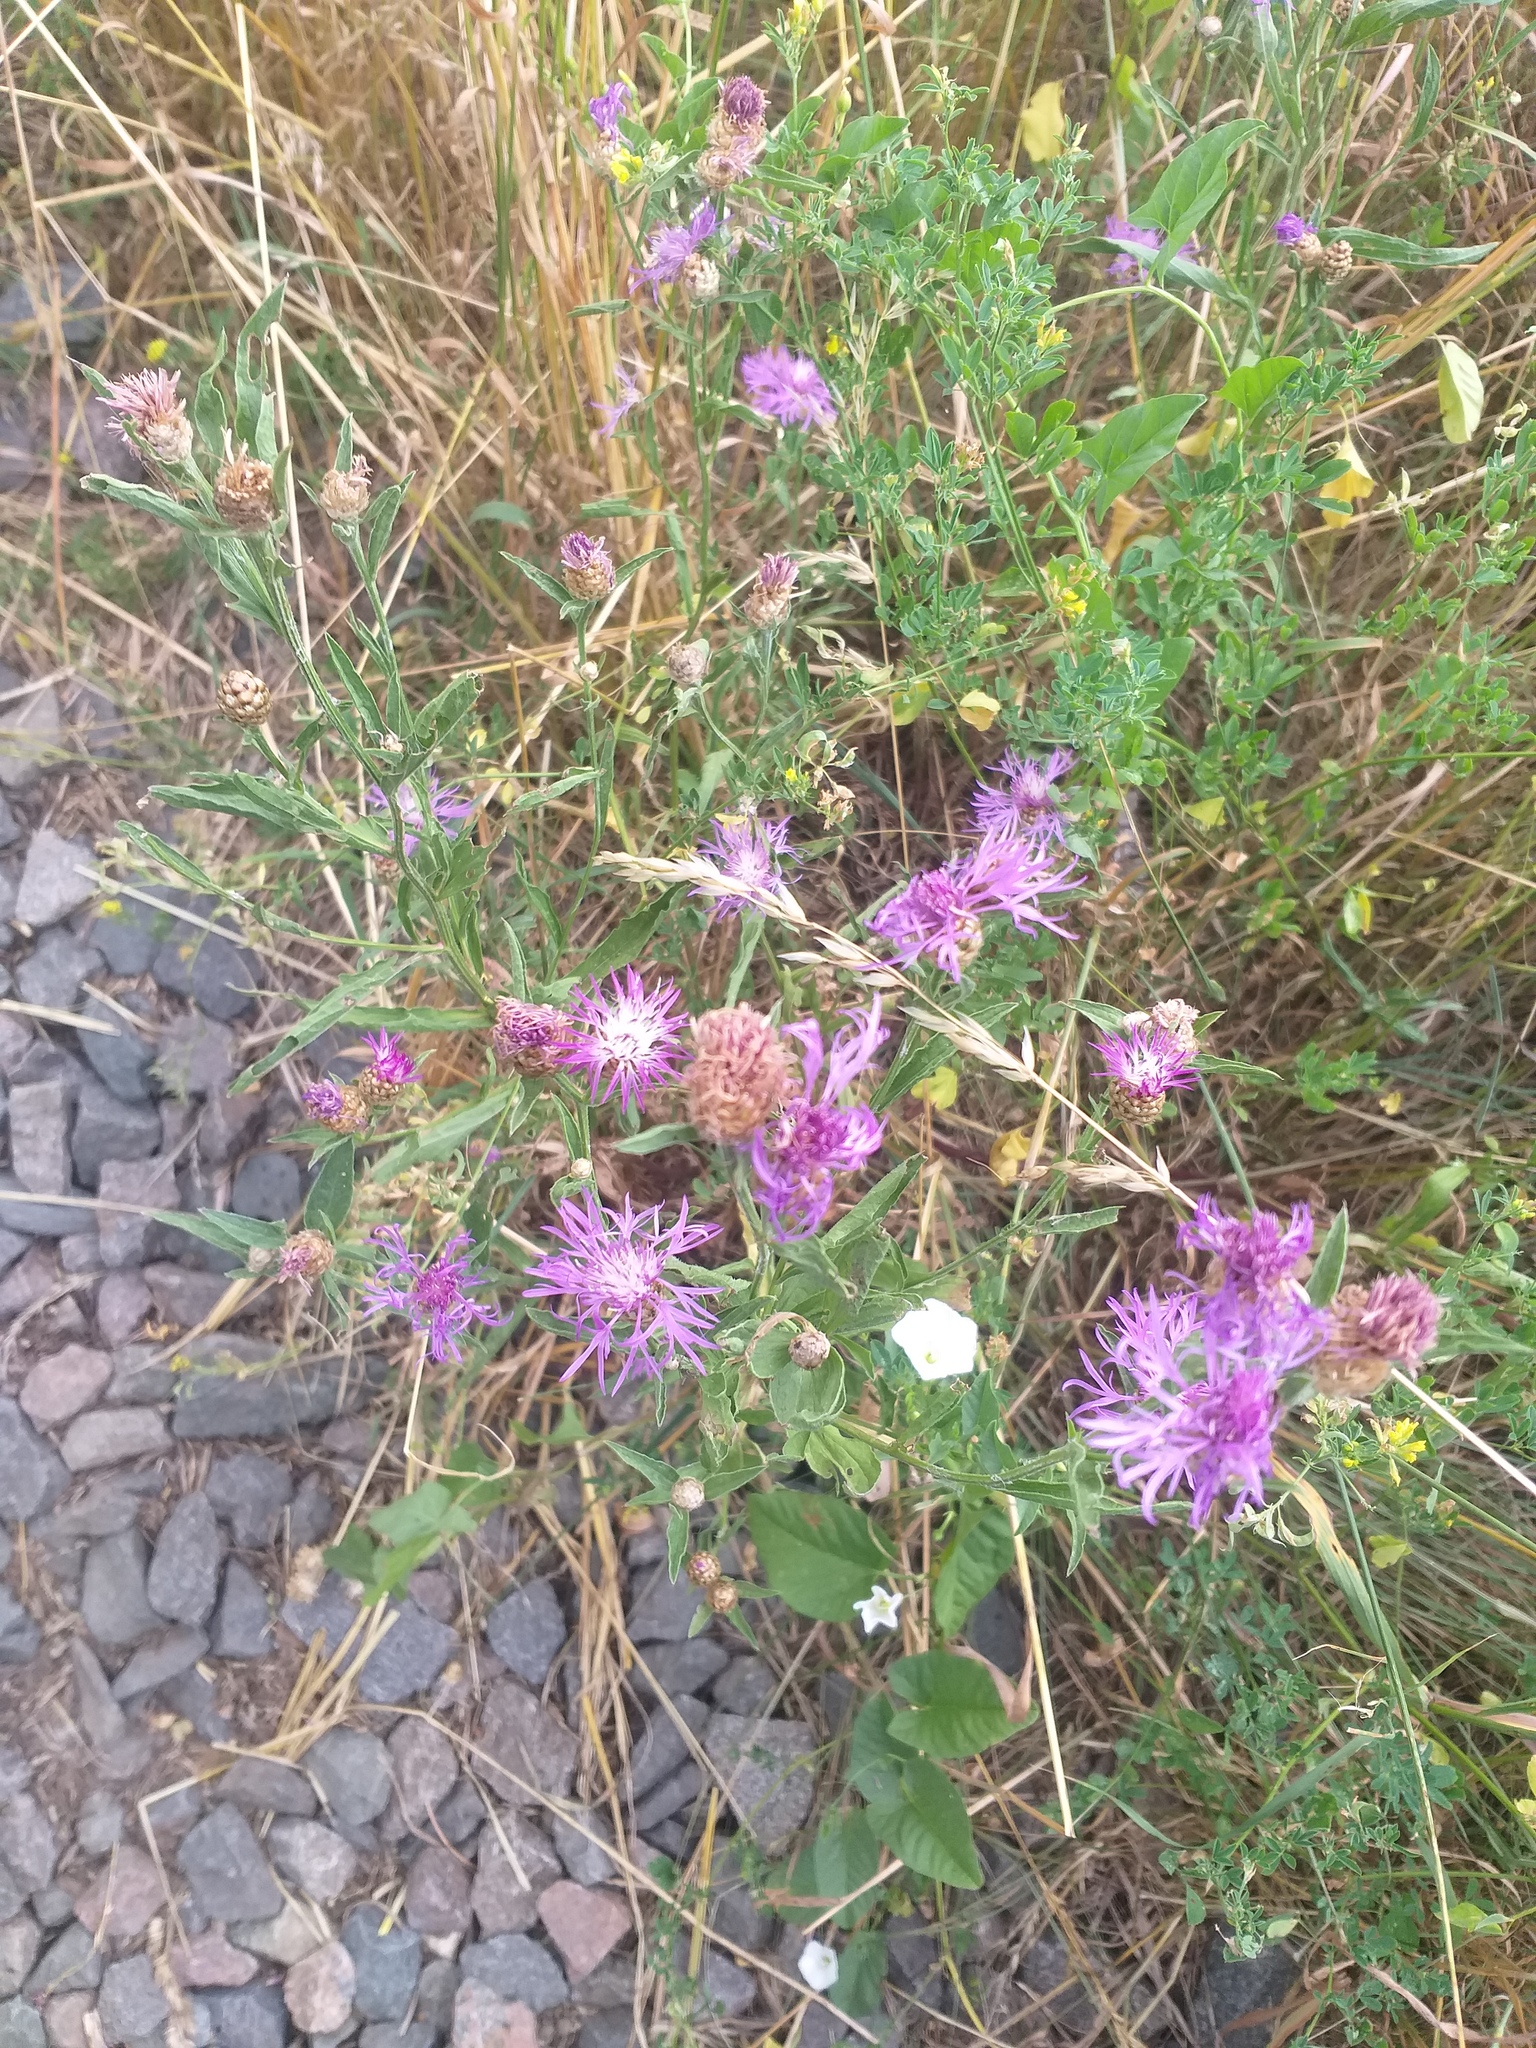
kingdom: Plantae
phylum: Tracheophyta
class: Magnoliopsida
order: Asterales
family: Asteraceae
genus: Centaurea
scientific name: Centaurea jacea
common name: Brown knapweed
